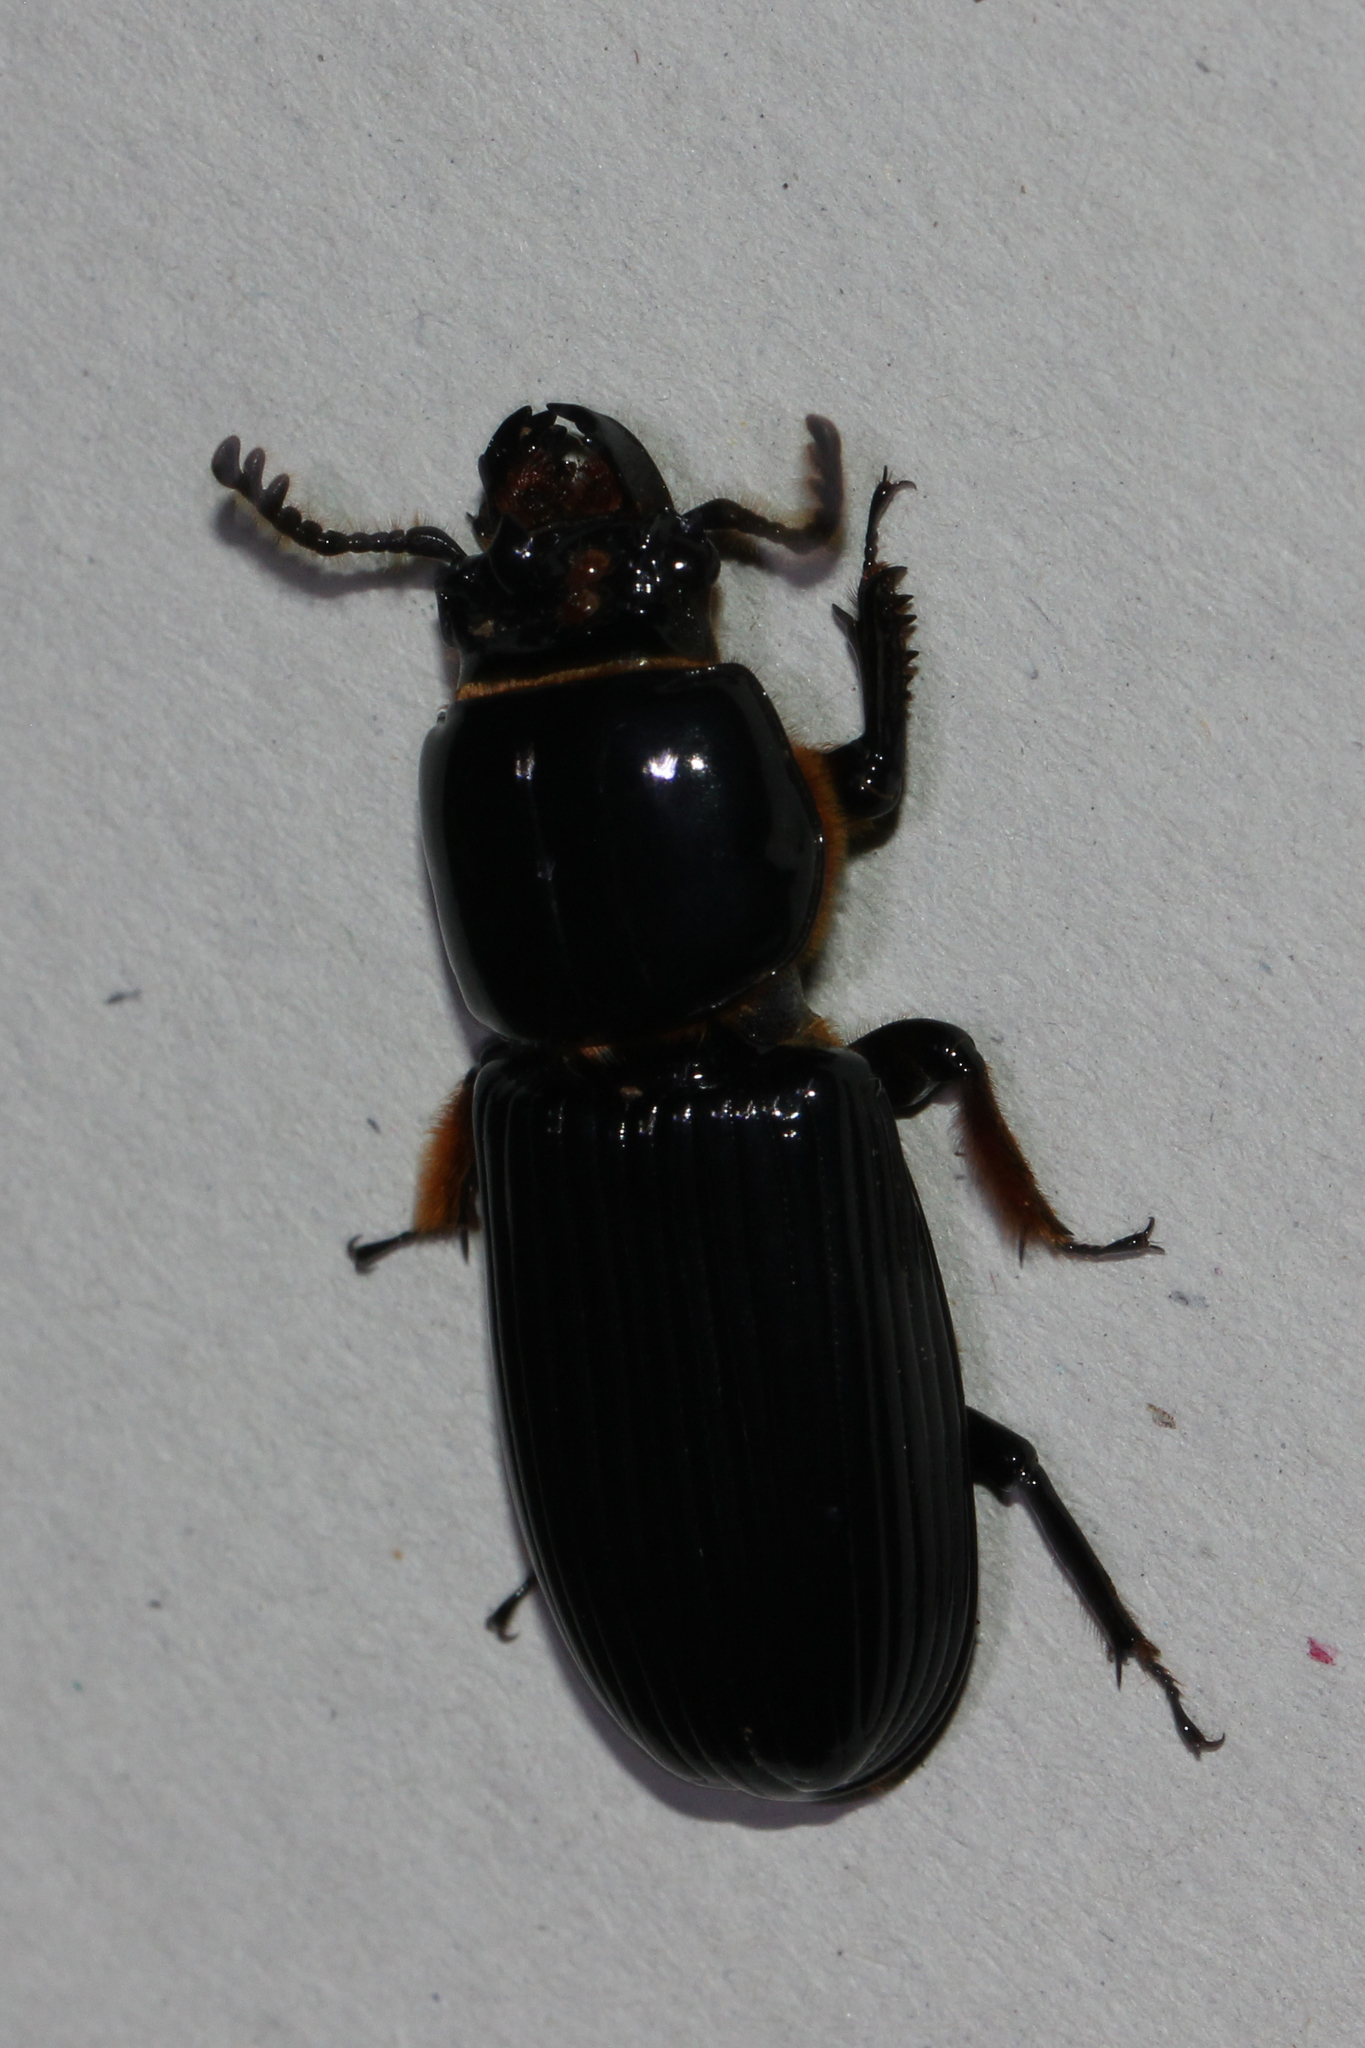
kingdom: Animalia
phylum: Arthropoda
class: Insecta
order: Coleoptera
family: Passalidae
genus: Odontotaenius
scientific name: Odontotaenius disjunctus
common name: Patent leather beetle
